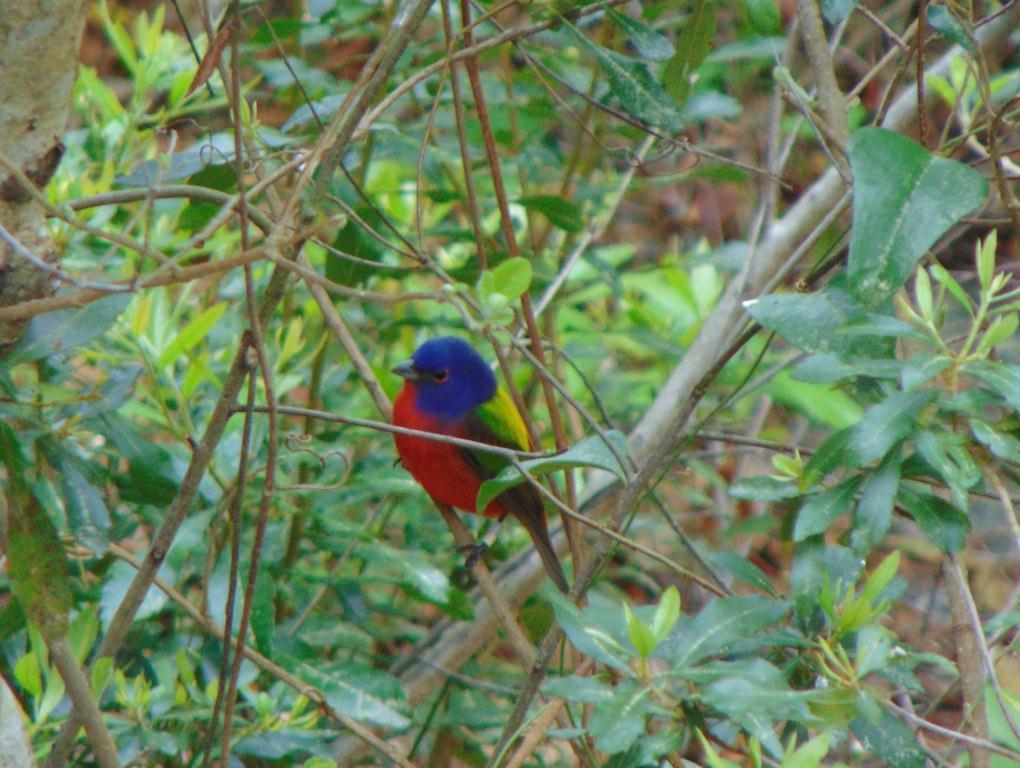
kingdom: Animalia
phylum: Chordata
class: Aves
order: Passeriformes
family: Cardinalidae
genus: Passerina
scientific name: Passerina ciris
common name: Painted bunting
